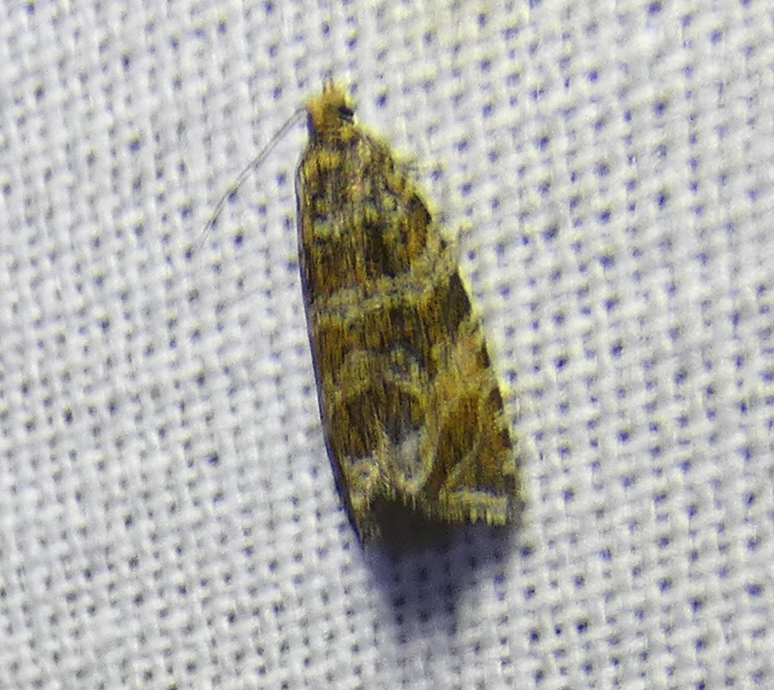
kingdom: Animalia
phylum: Arthropoda
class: Insecta
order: Lepidoptera
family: Tortricidae
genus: Syricoris
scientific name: Syricoris rivulana
